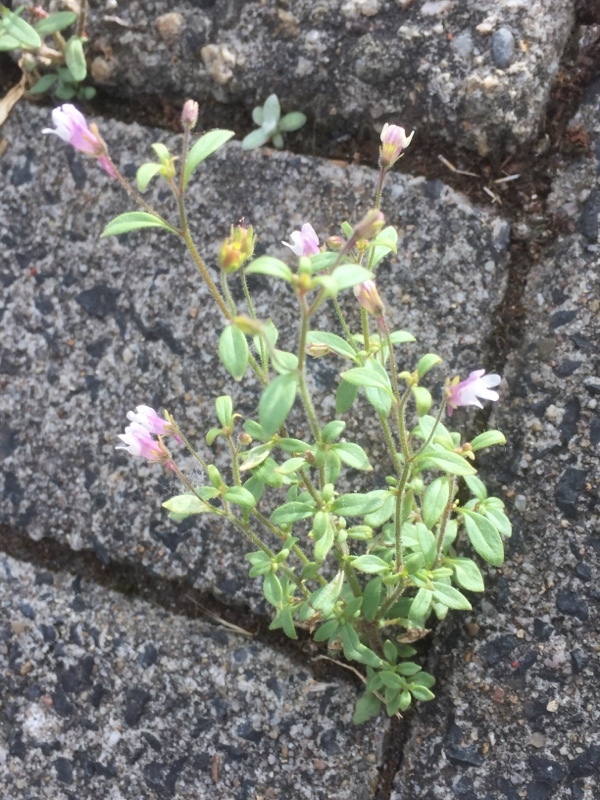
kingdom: Plantae
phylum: Tracheophyta
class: Magnoliopsida
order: Lamiales
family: Plantaginaceae
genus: Chaenorhinum
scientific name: Chaenorhinum minus
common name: Dwarf snapdragon
